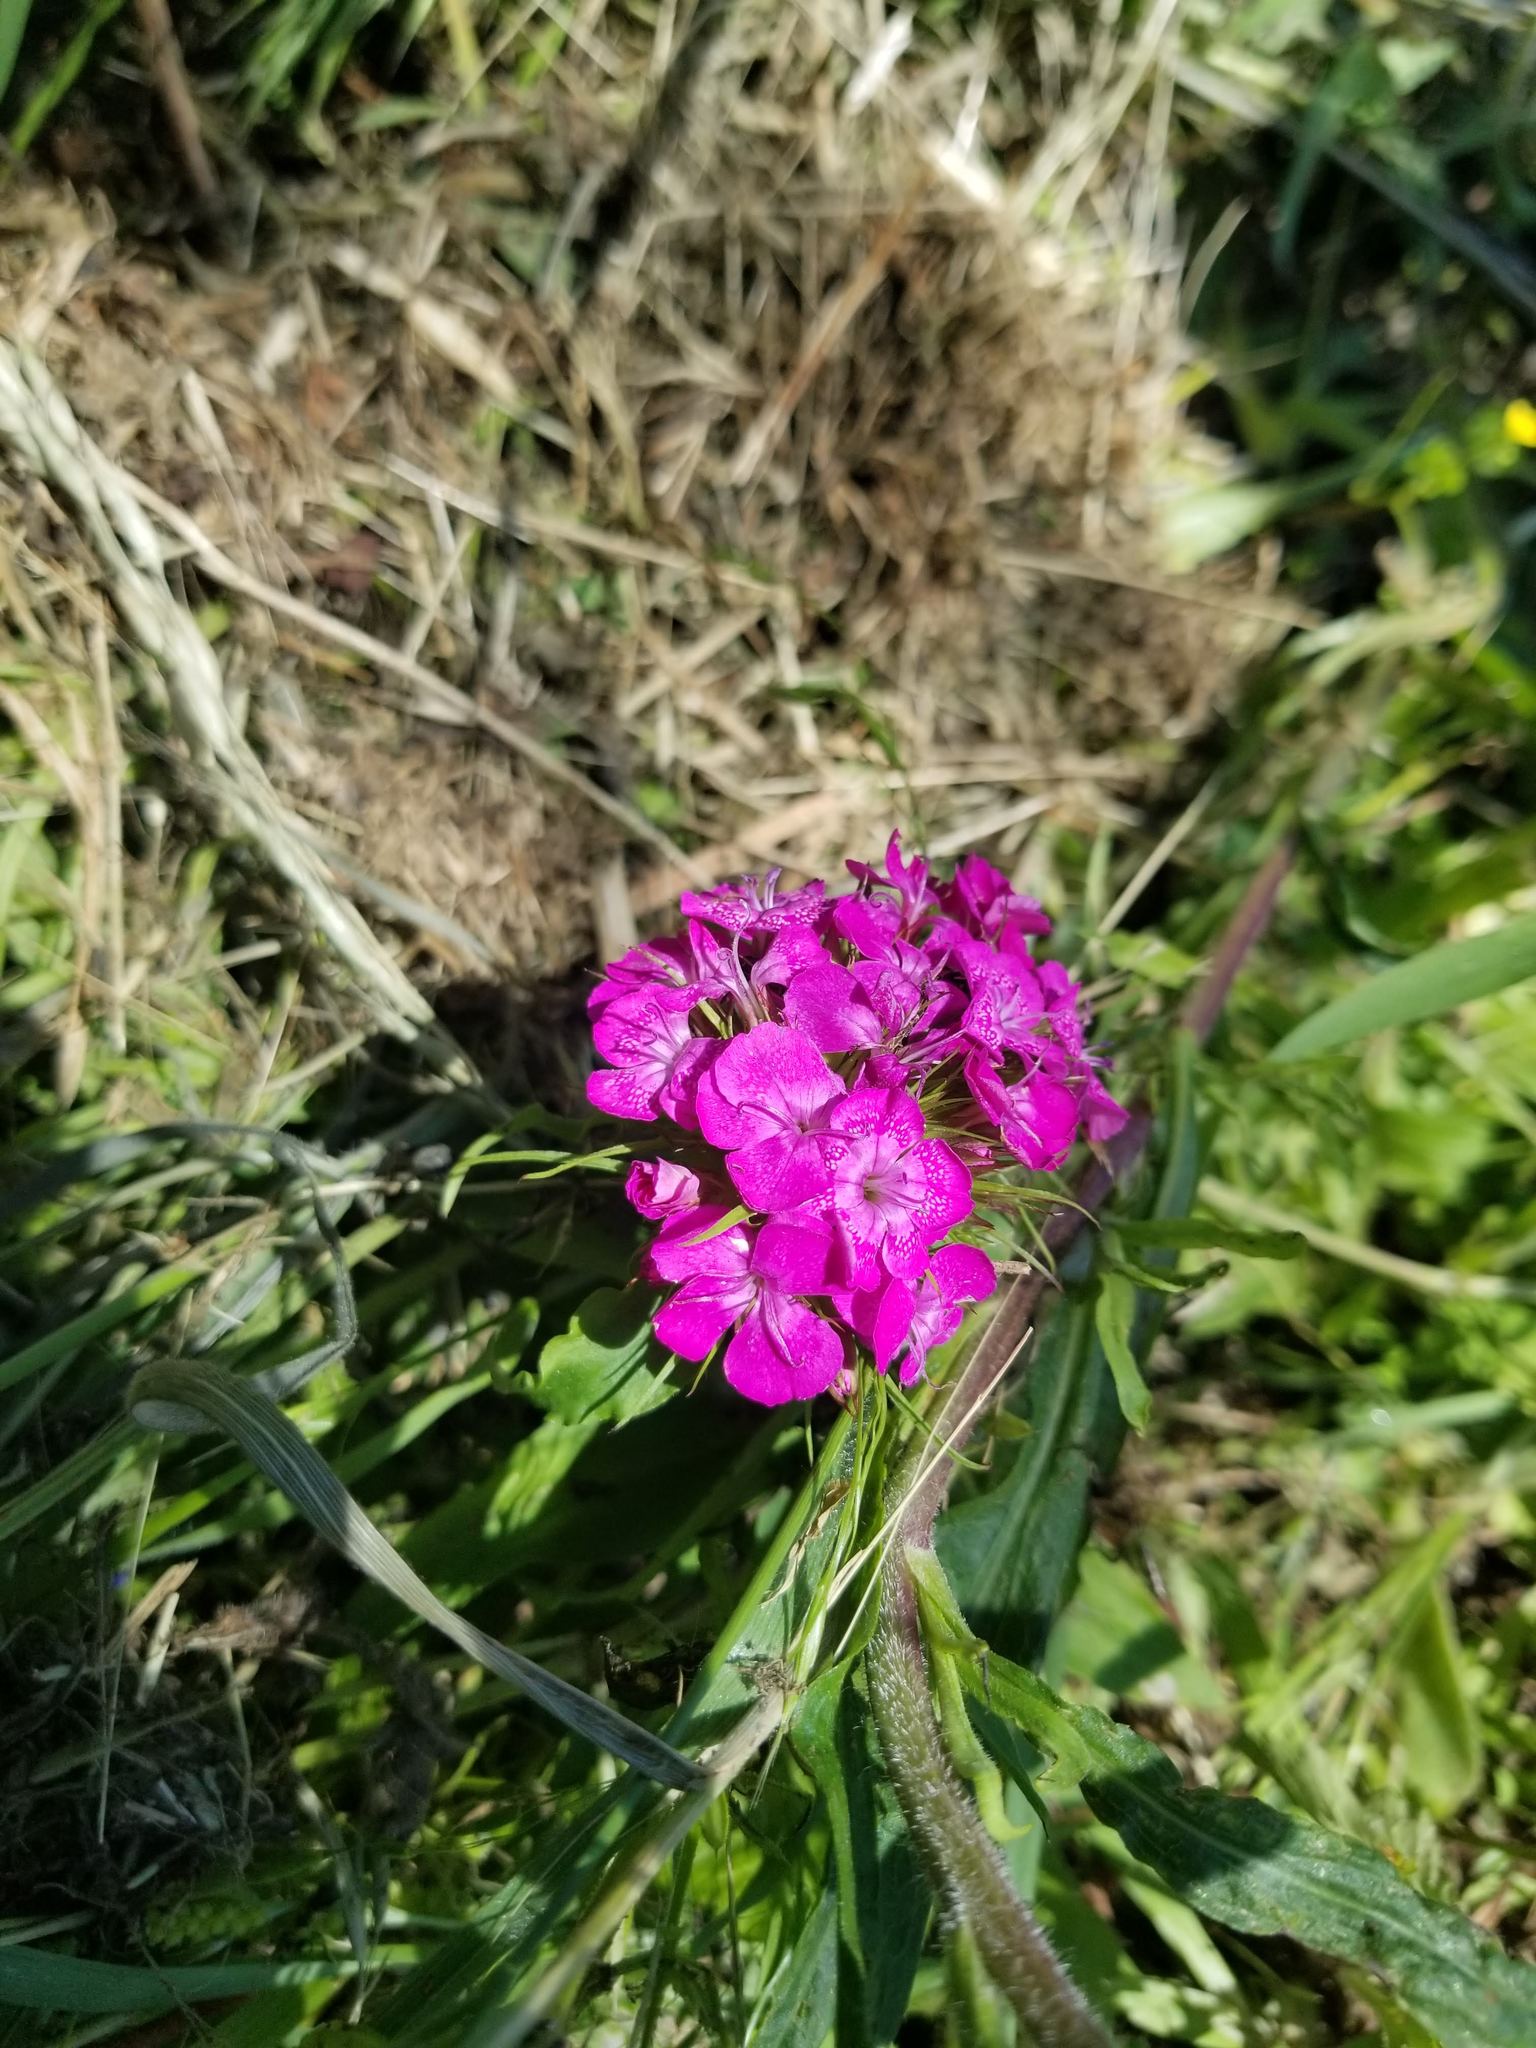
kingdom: Plantae
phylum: Tracheophyta
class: Magnoliopsida
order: Caryophyllales
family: Caryophyllaceae
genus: Dianthus
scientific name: Dianthus barbatus
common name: Sweet-william
